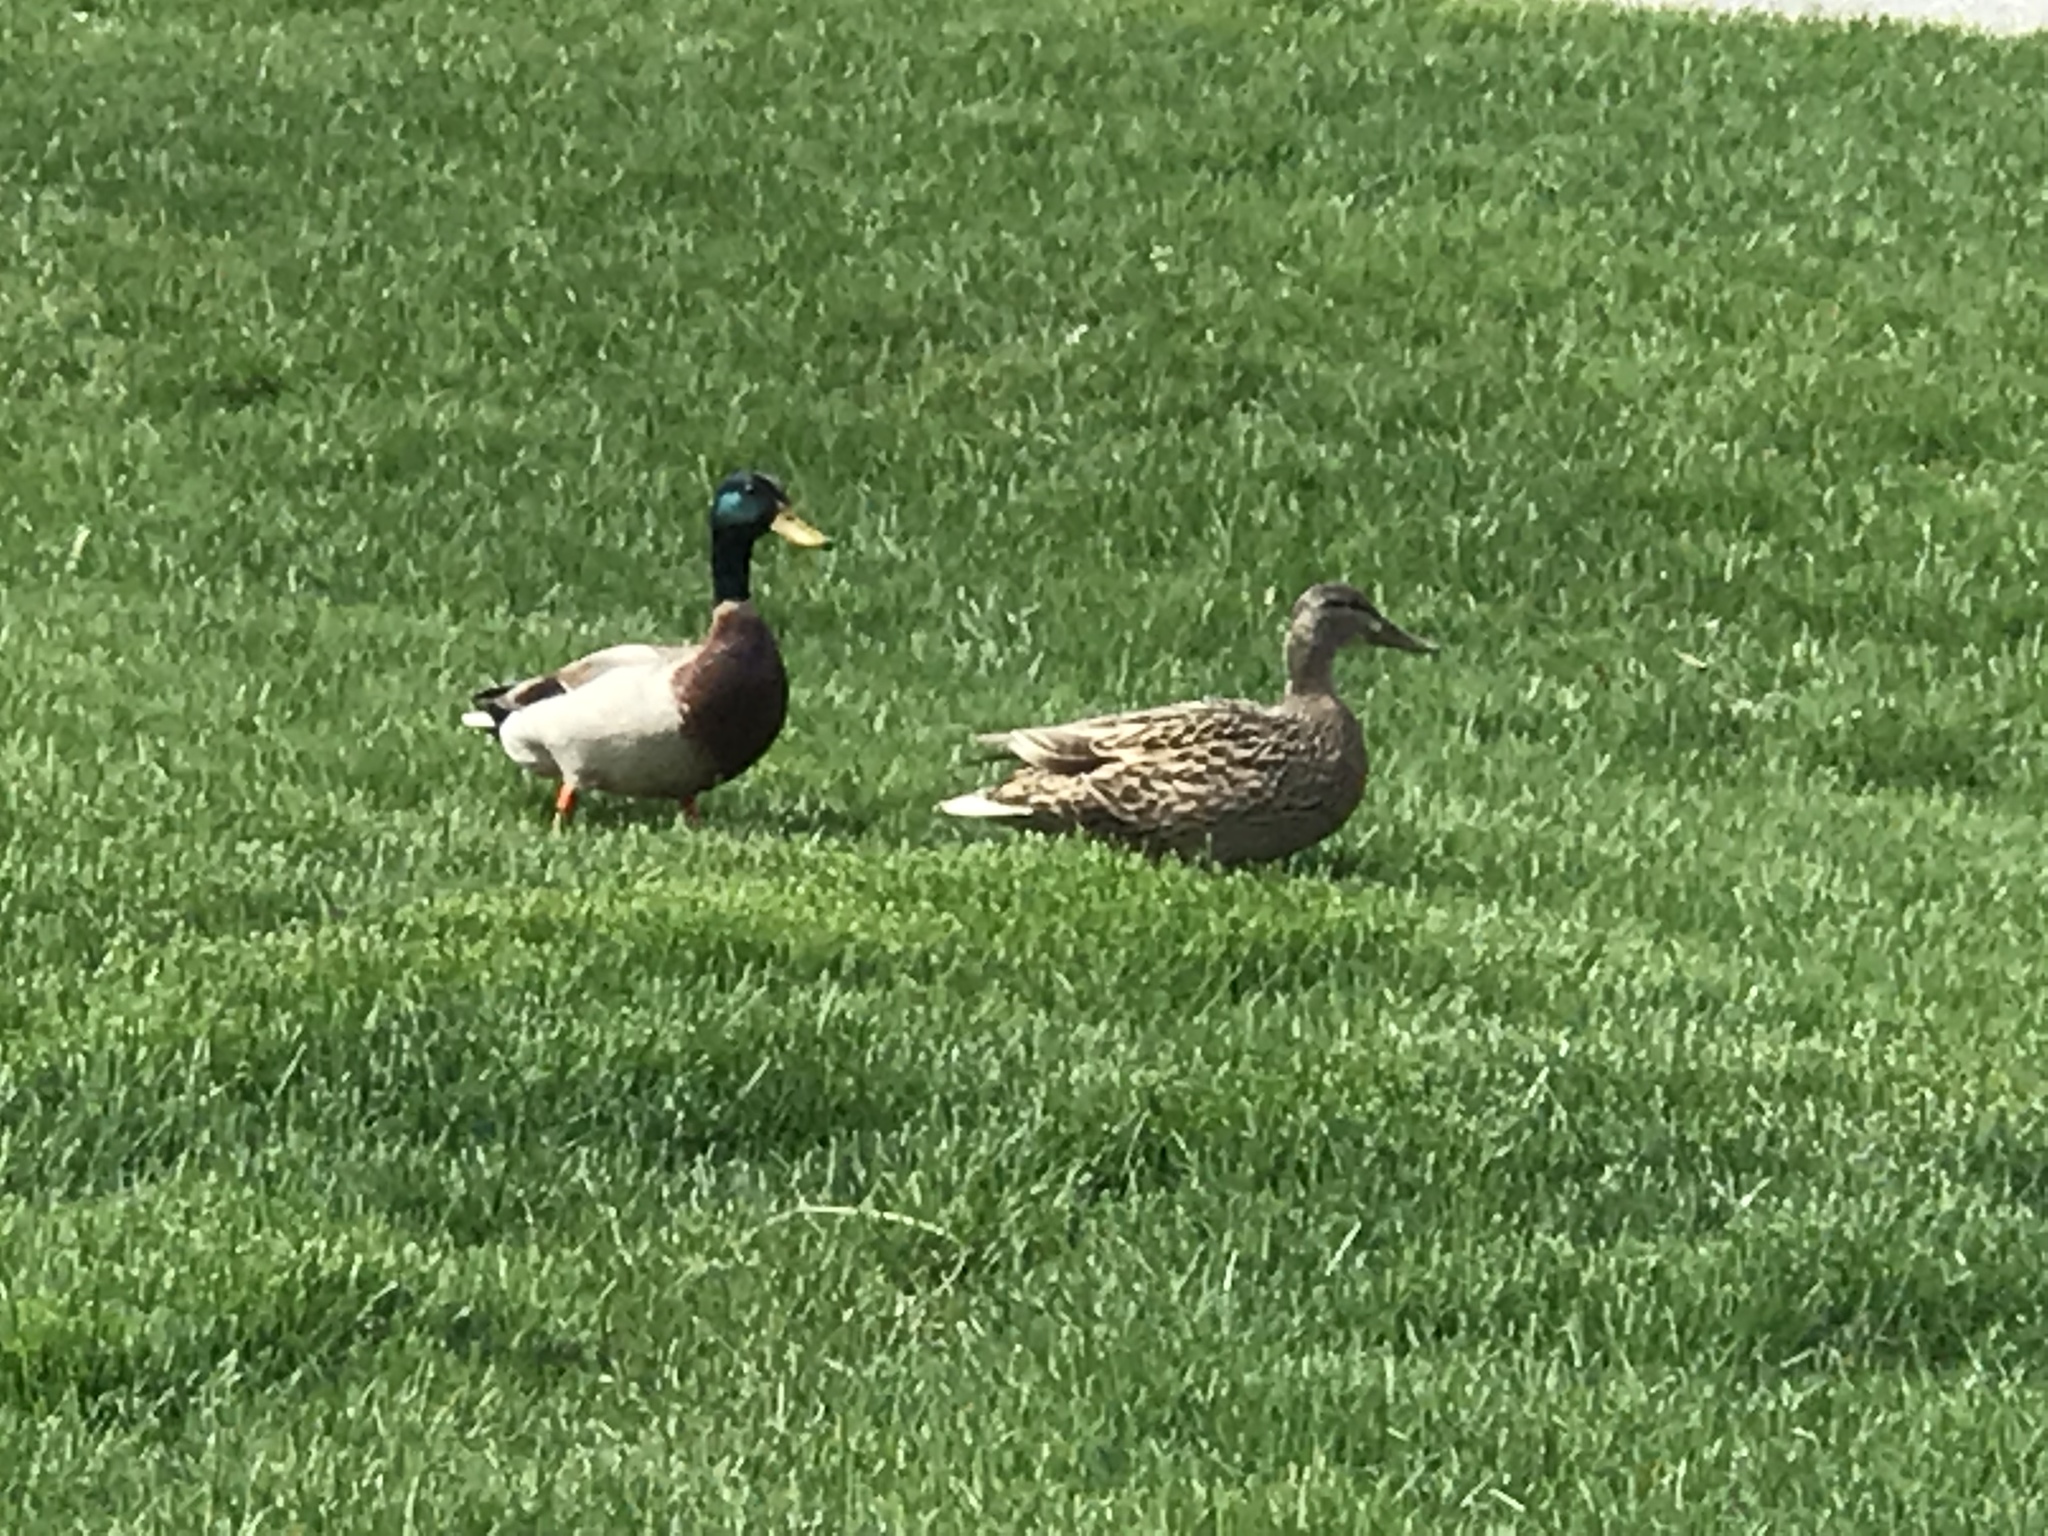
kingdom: Animalia
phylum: Chordata
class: Aves
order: Anseriformes
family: Anatidae
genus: Anas
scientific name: Anas platyrhynchos
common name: Mallard
